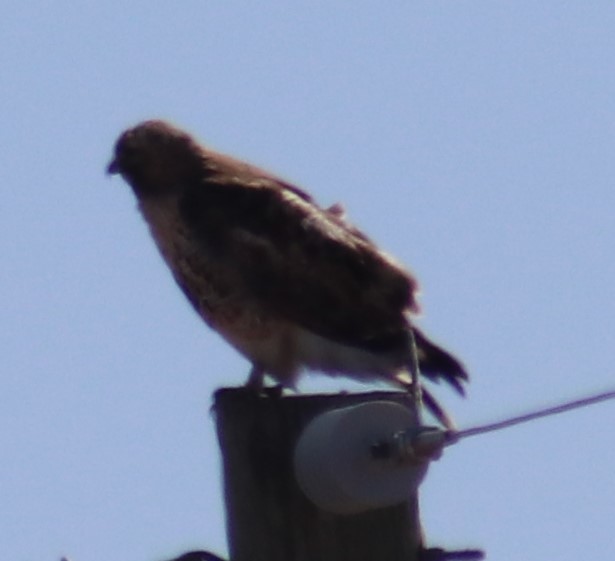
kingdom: Animalia
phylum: Chordata
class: Aves
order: Accipitriformes
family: Accipitridae
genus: Buteo
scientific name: Buteo jamaicensis
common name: Red-tailed hawk
